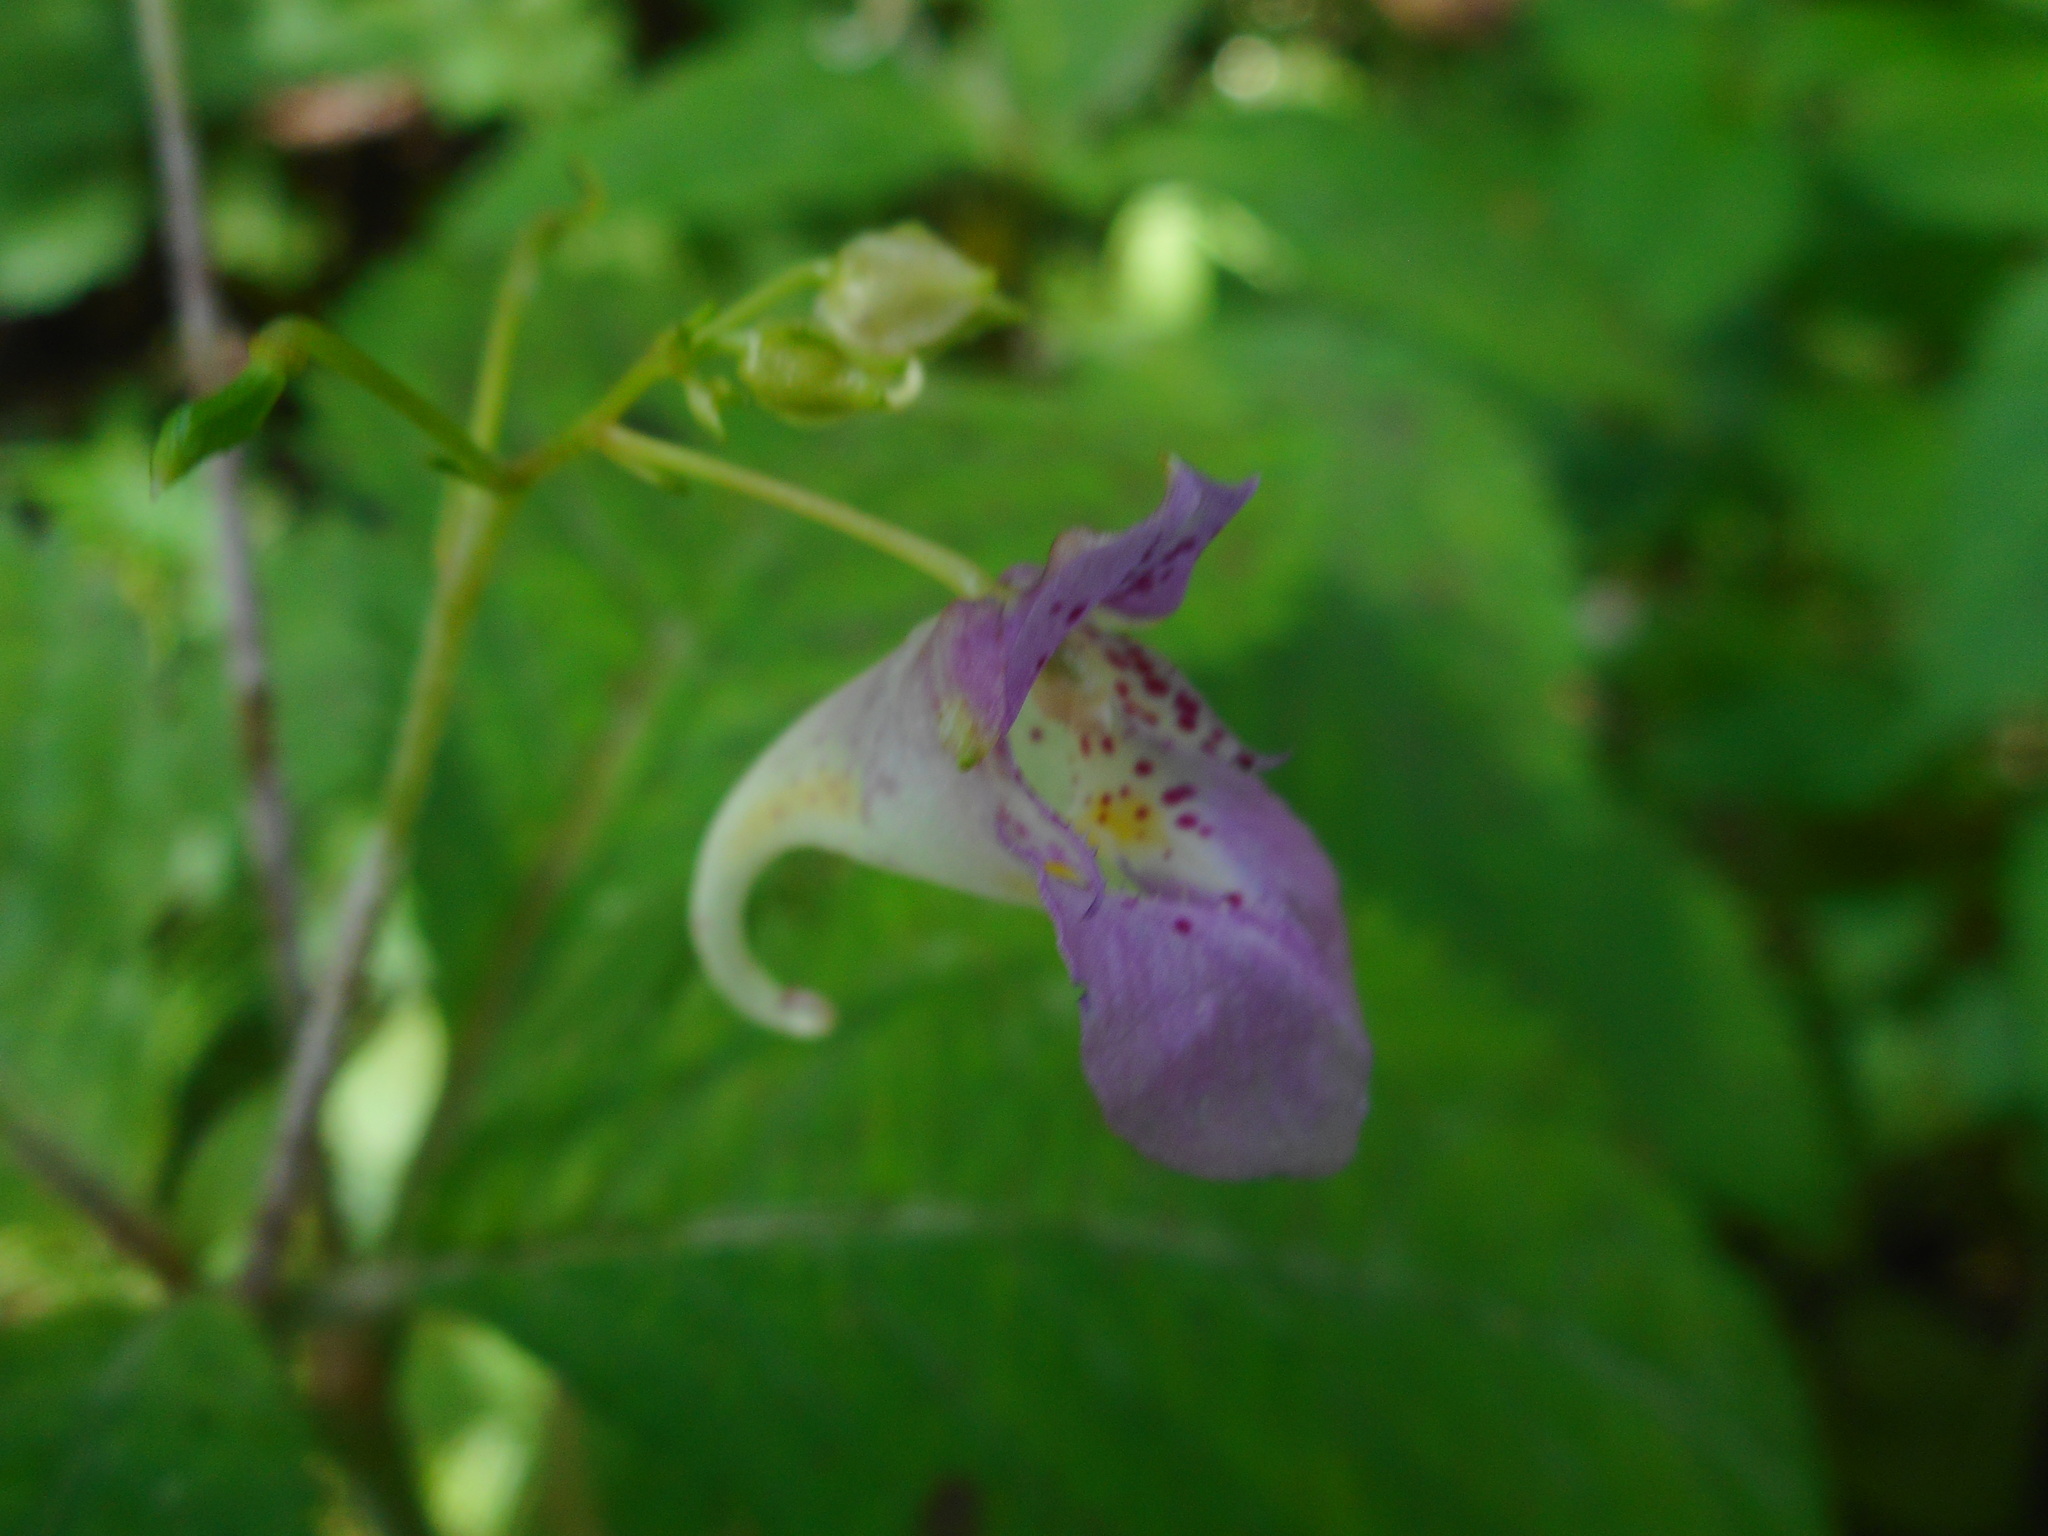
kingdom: Plantae
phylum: Tracheophyta
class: Magnoliopsida
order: Ericales
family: Balsaminaceae
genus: Impatiens
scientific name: Impatiens furcillata
